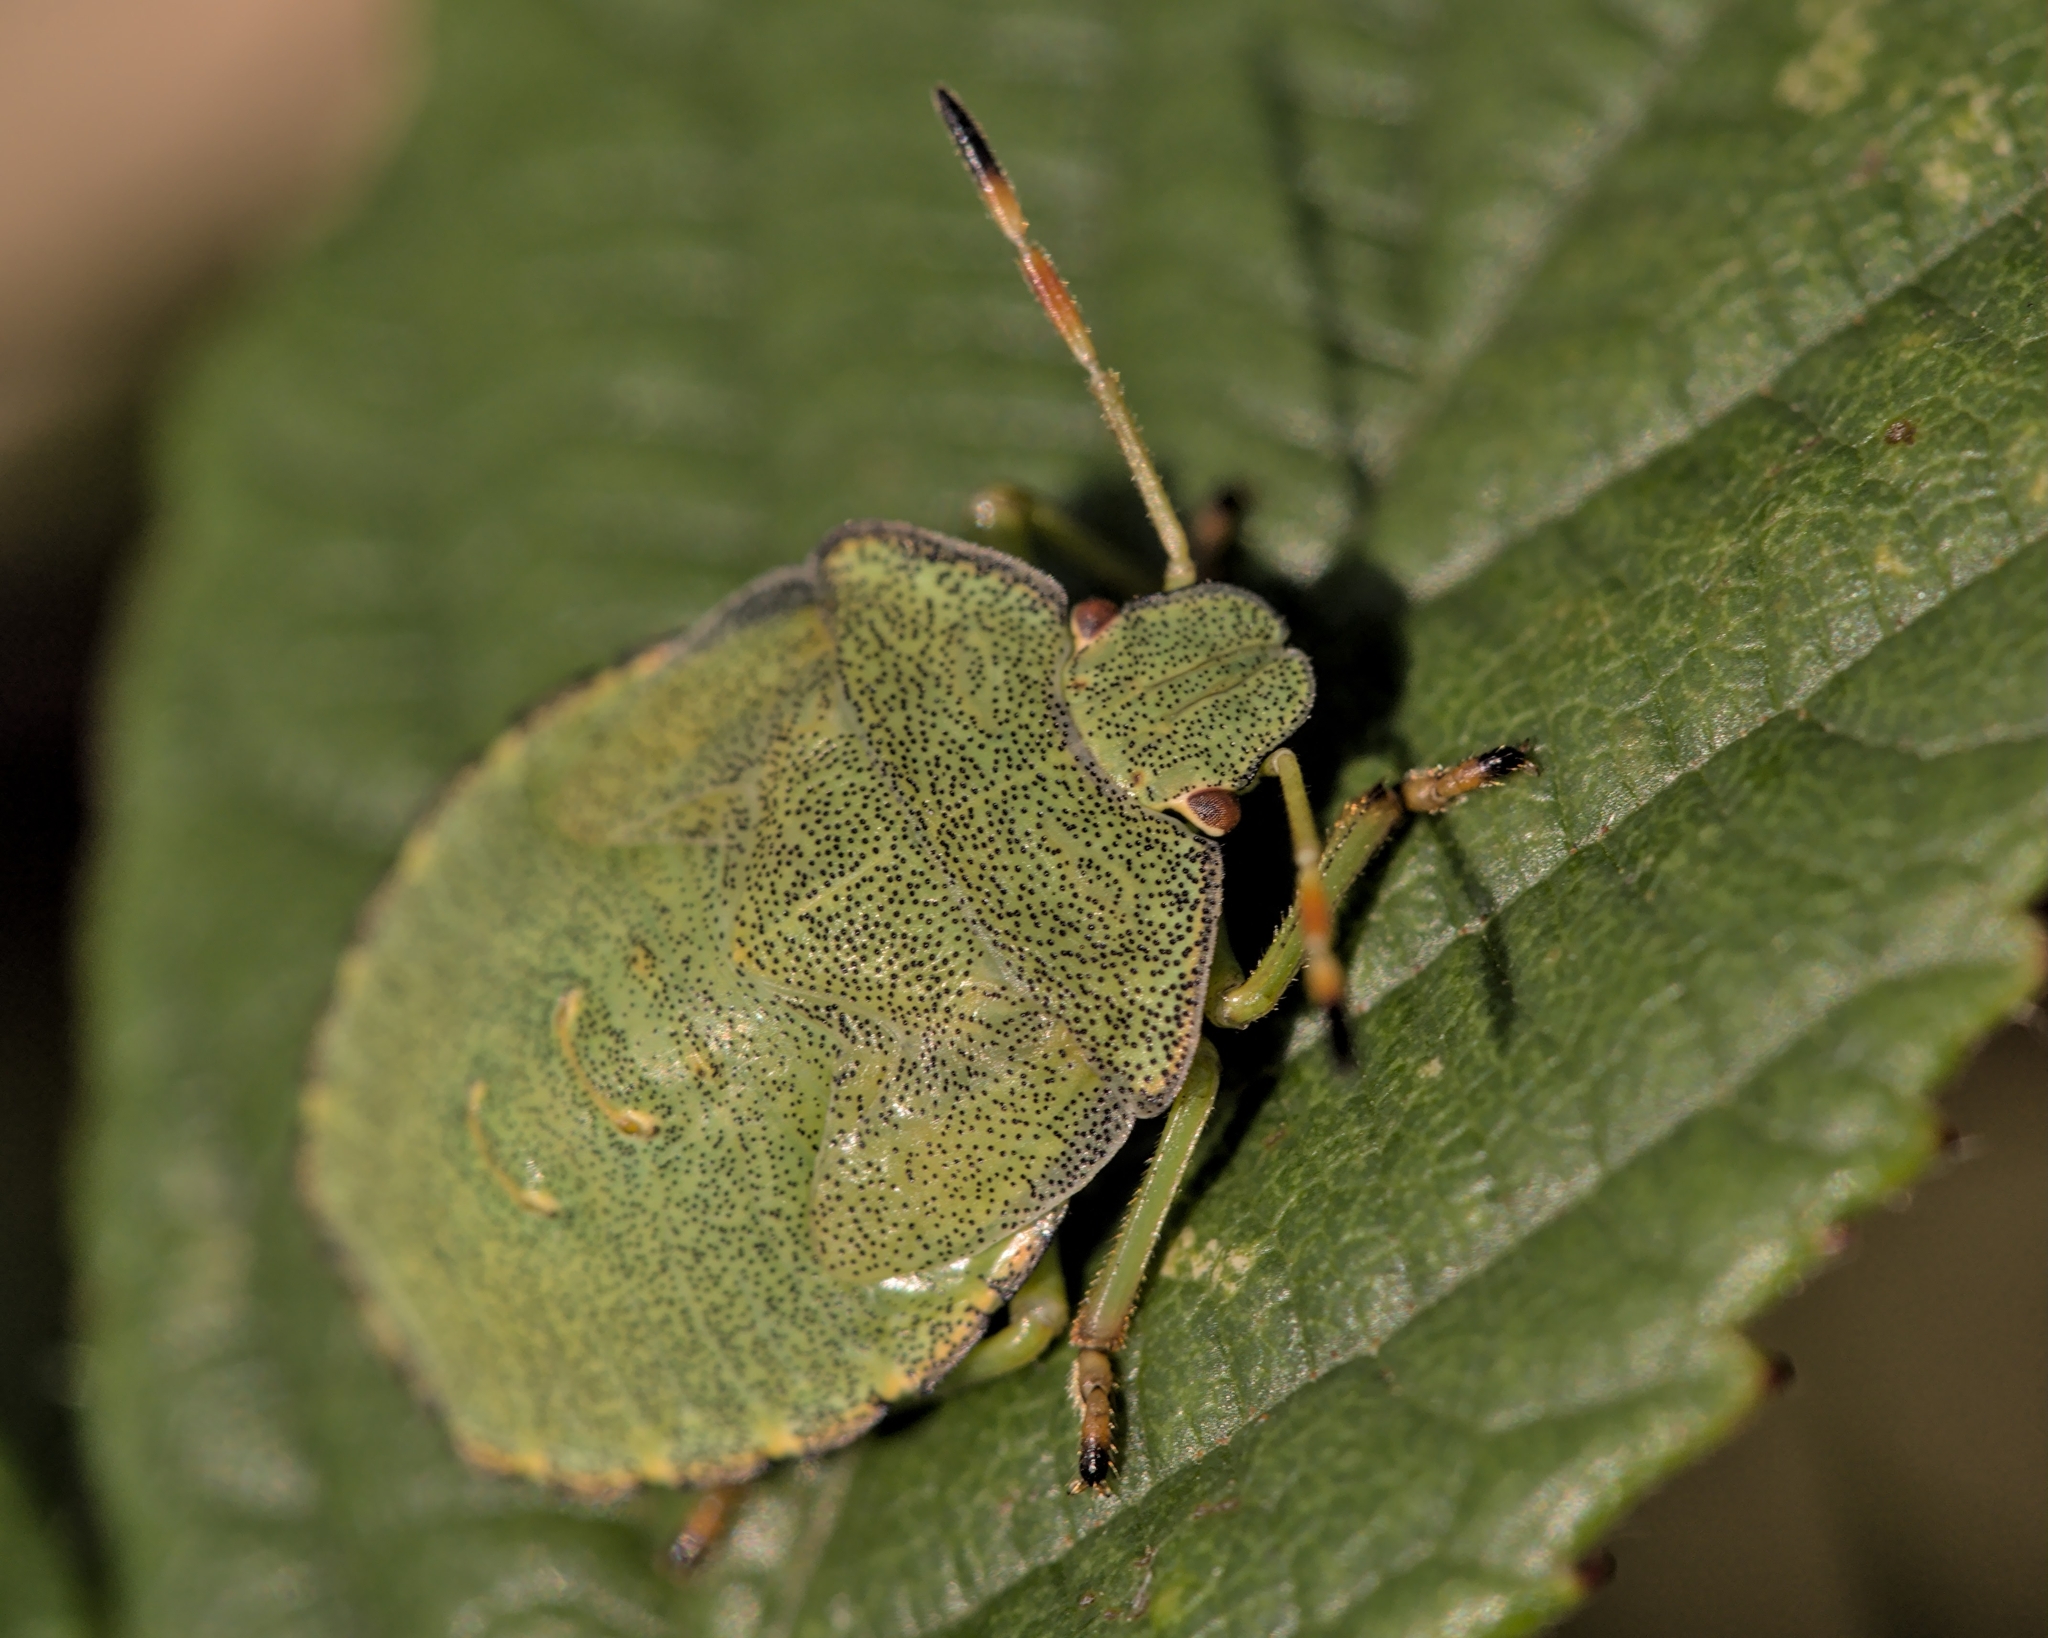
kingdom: Animalia
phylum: Arthropoda
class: Insecta
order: Hemiptera
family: Pentatomidae
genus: Palomena
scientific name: Palomena prasina
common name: Green shieldbug
